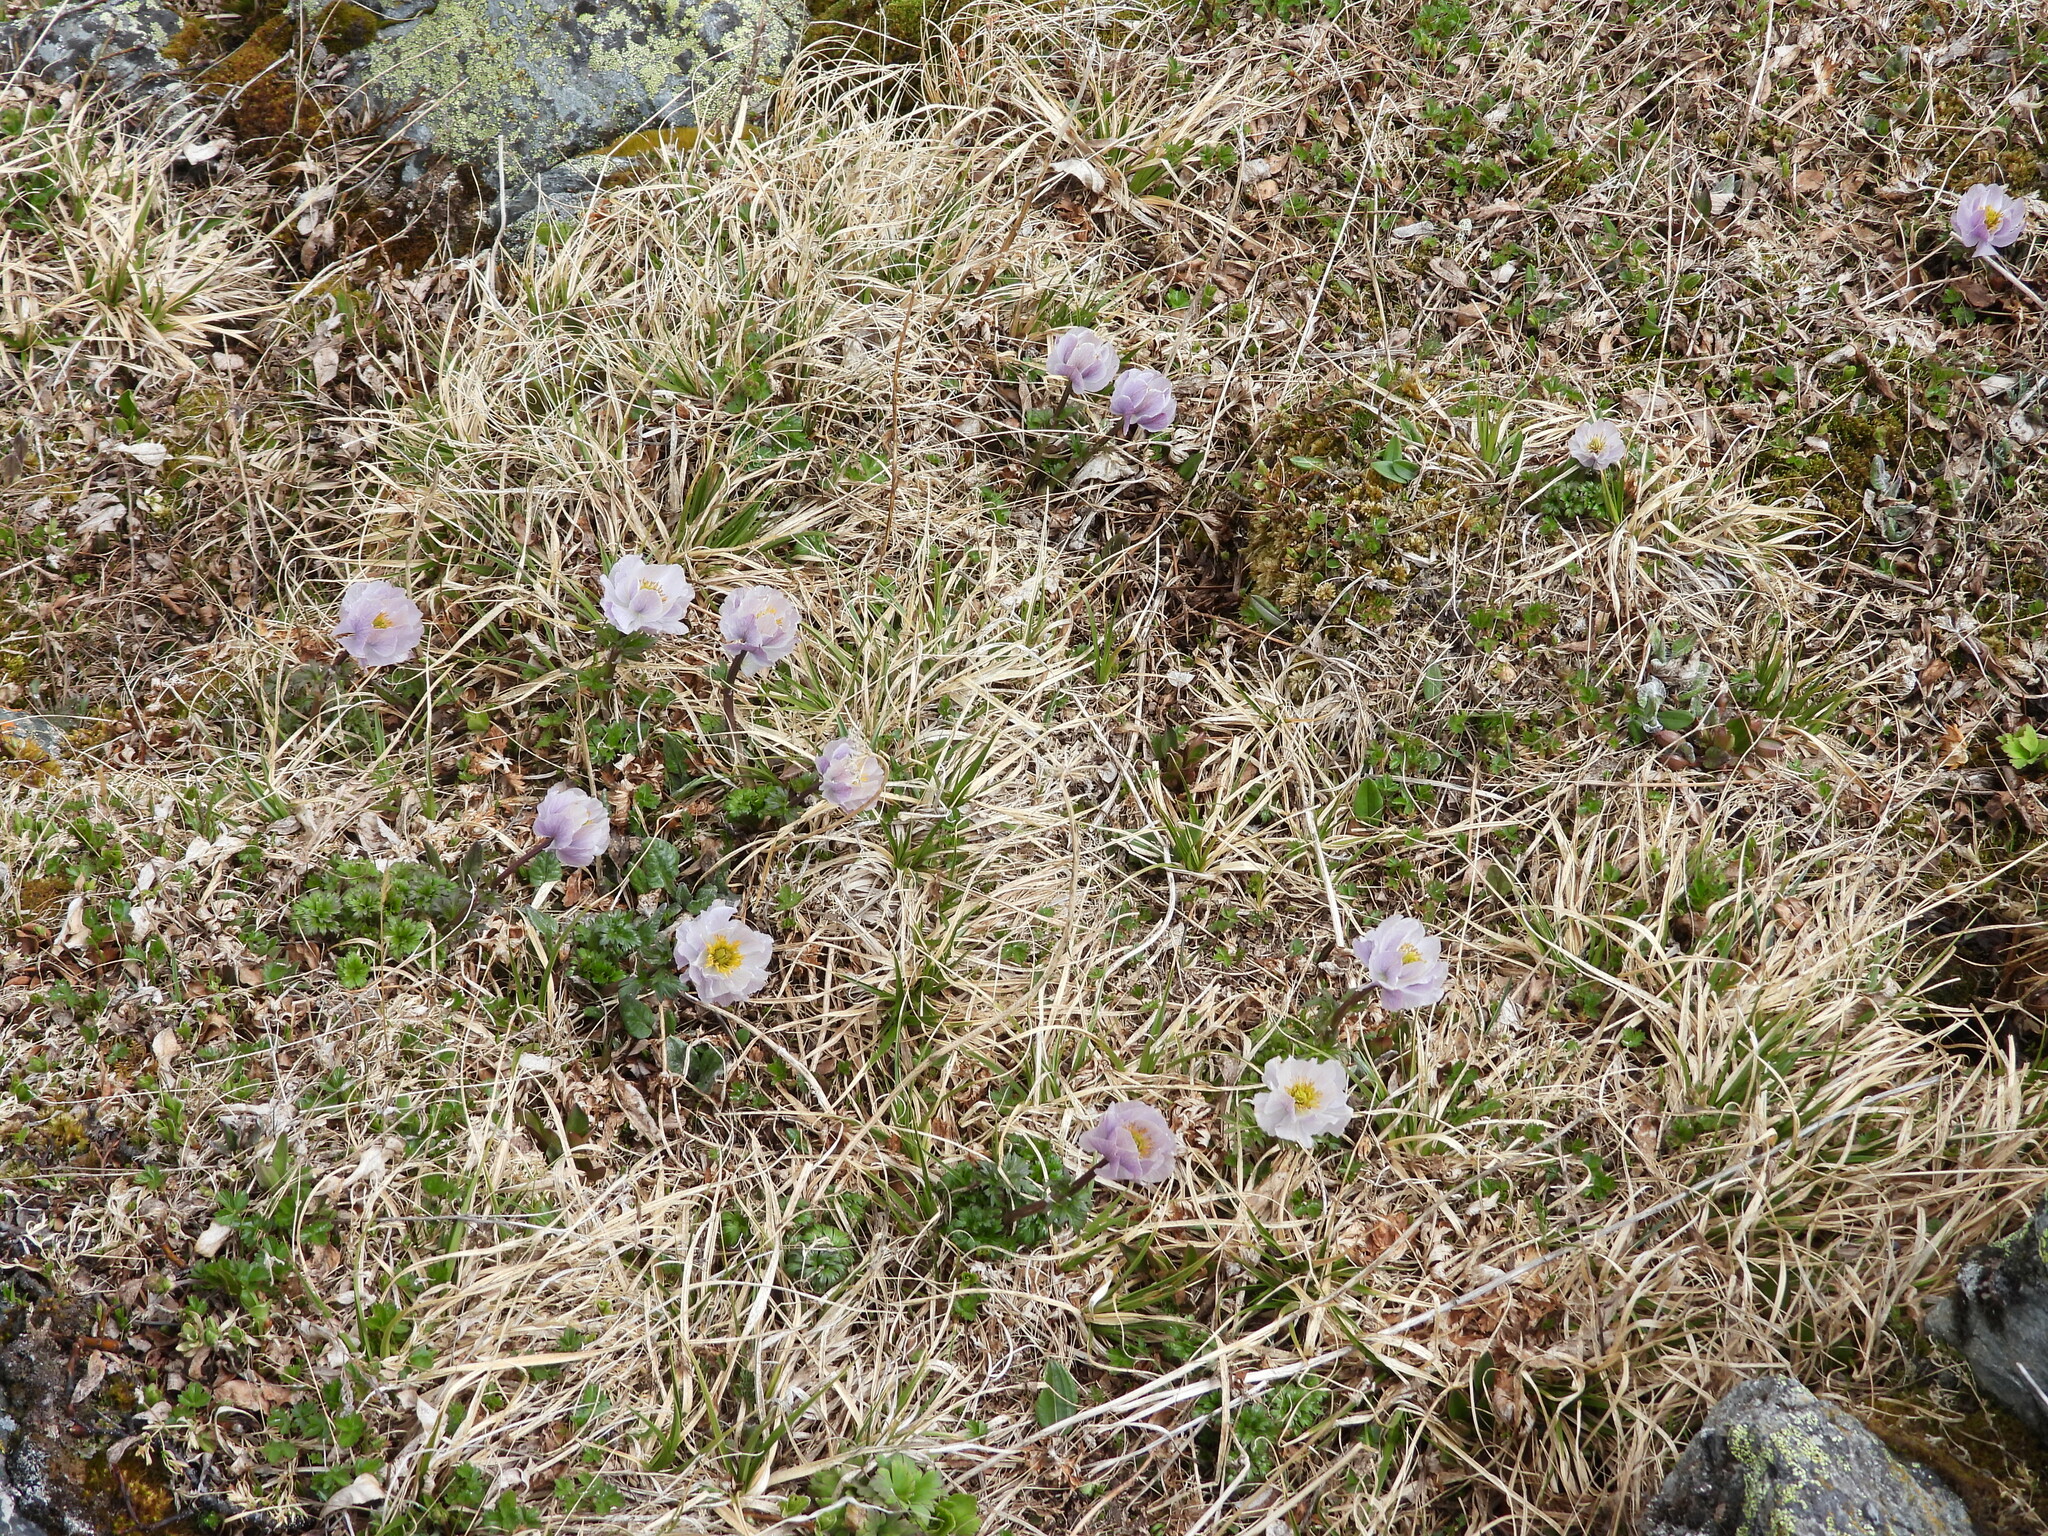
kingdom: Plantae
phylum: Tracheophyta
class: Magnoliopsida
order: Ranunculales
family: Ranunculaceae
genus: Trollius
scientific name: Trollius lilacinus
